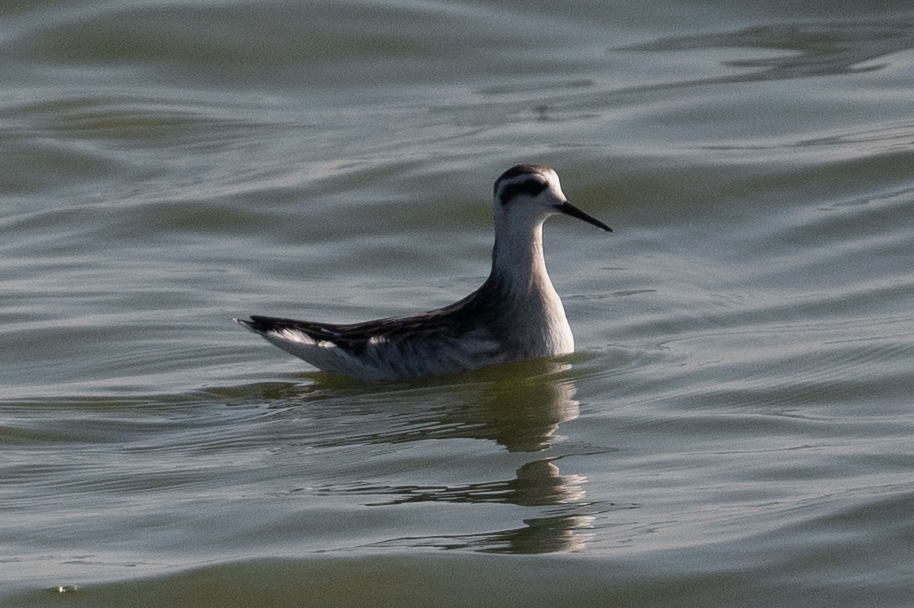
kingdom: Animalia
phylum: Chordata
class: Aves
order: Charadriiformes
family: Scolopacidae
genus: Phalaropus
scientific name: Phalaropus lobatus
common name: Red-necked phalarope
